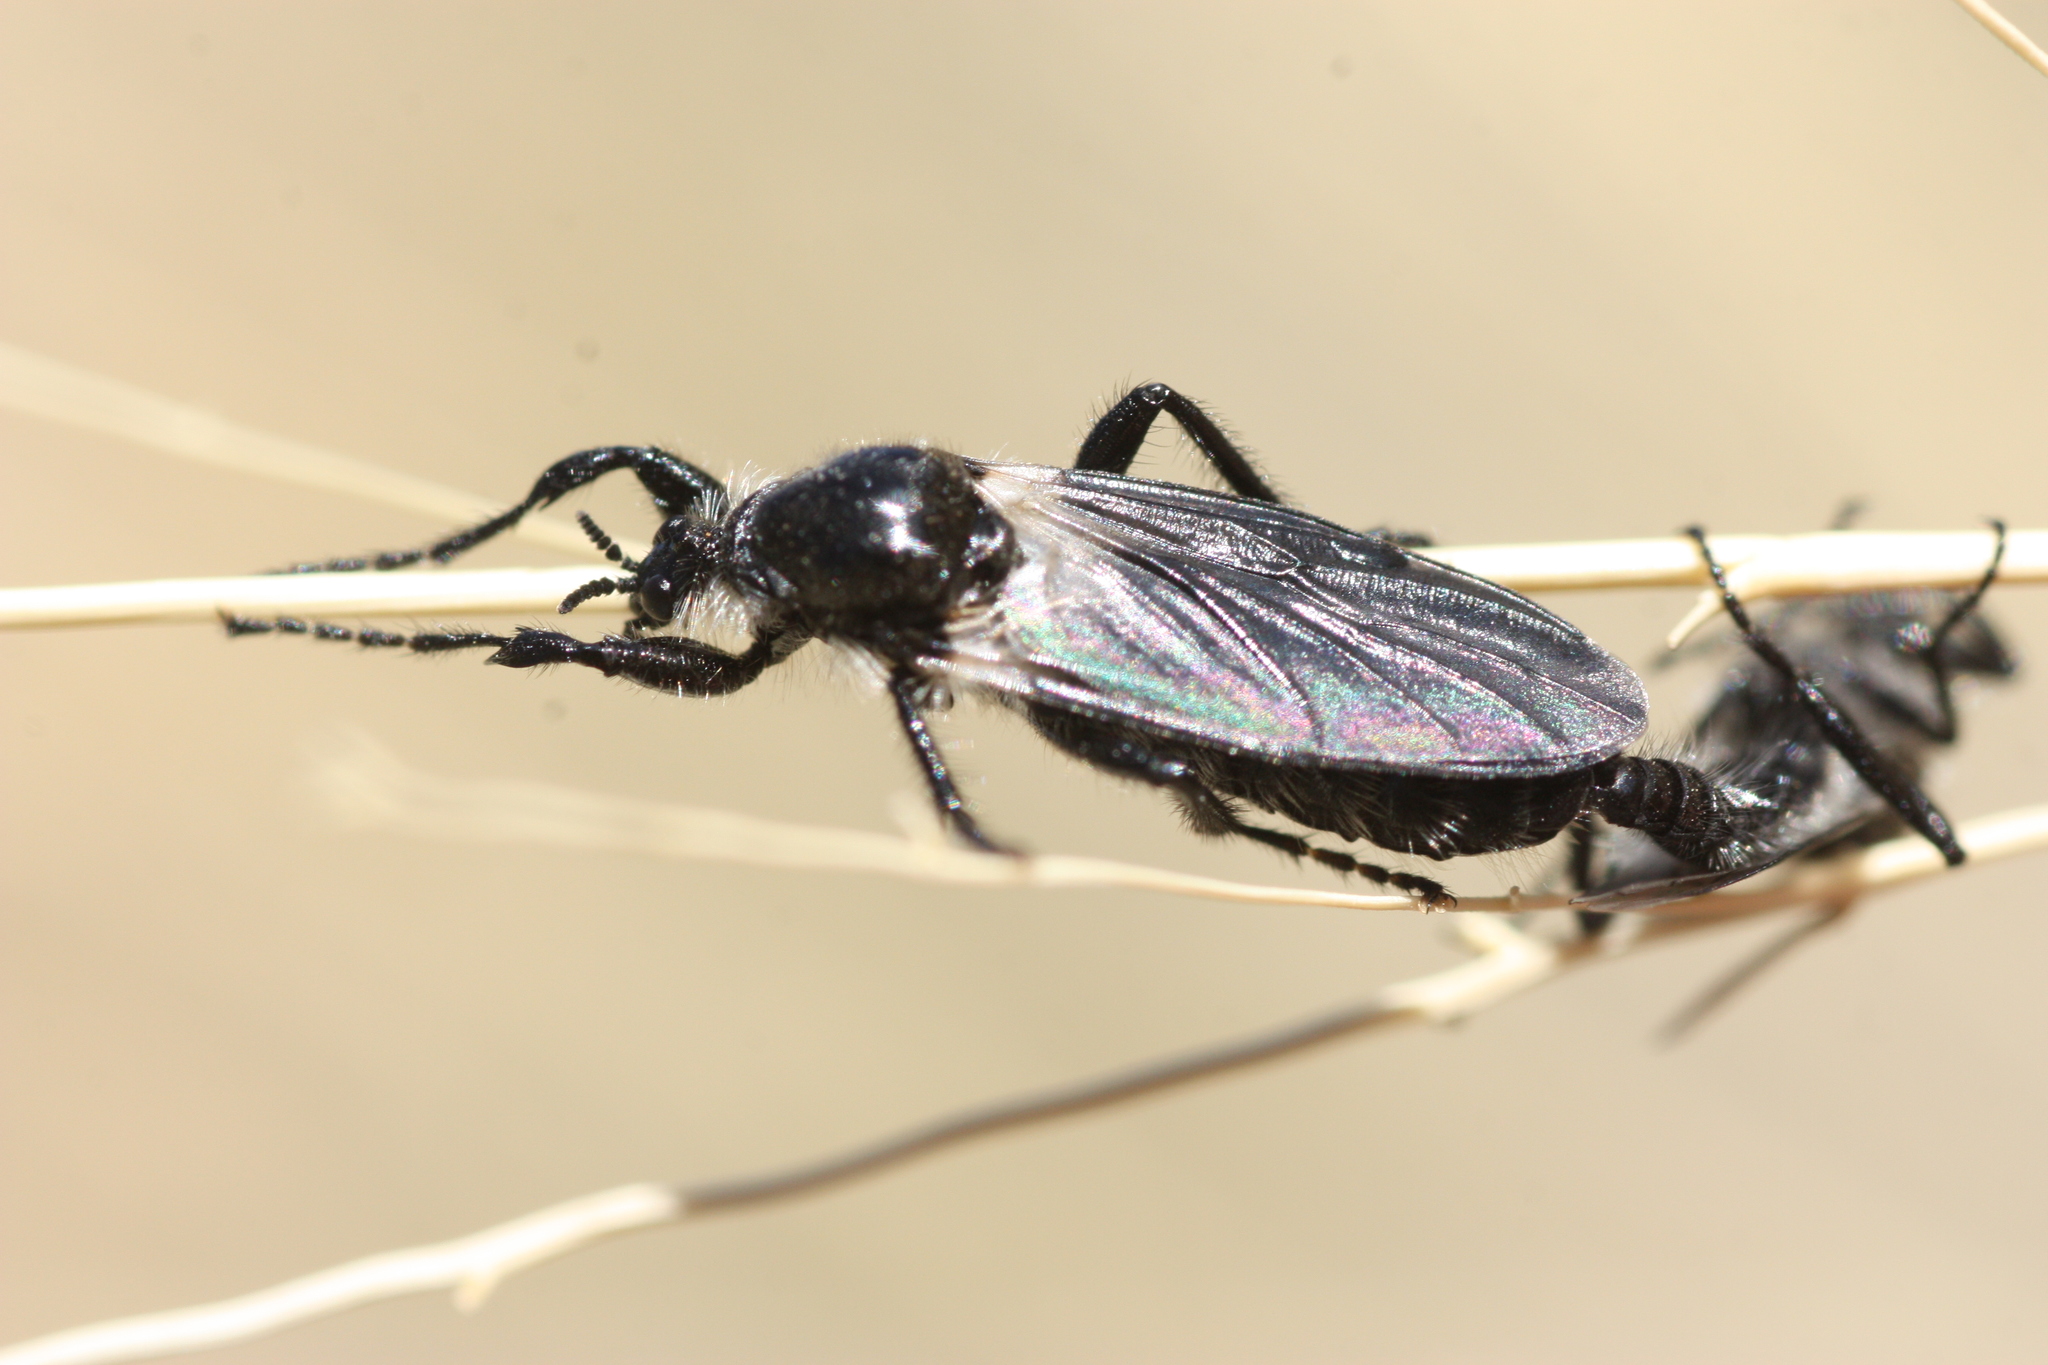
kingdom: Animalia
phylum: Arthropoda
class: Insecta
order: Diptera
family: Bibionidae
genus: Bibio
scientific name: Bibio albipennis
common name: White-winged march fly
